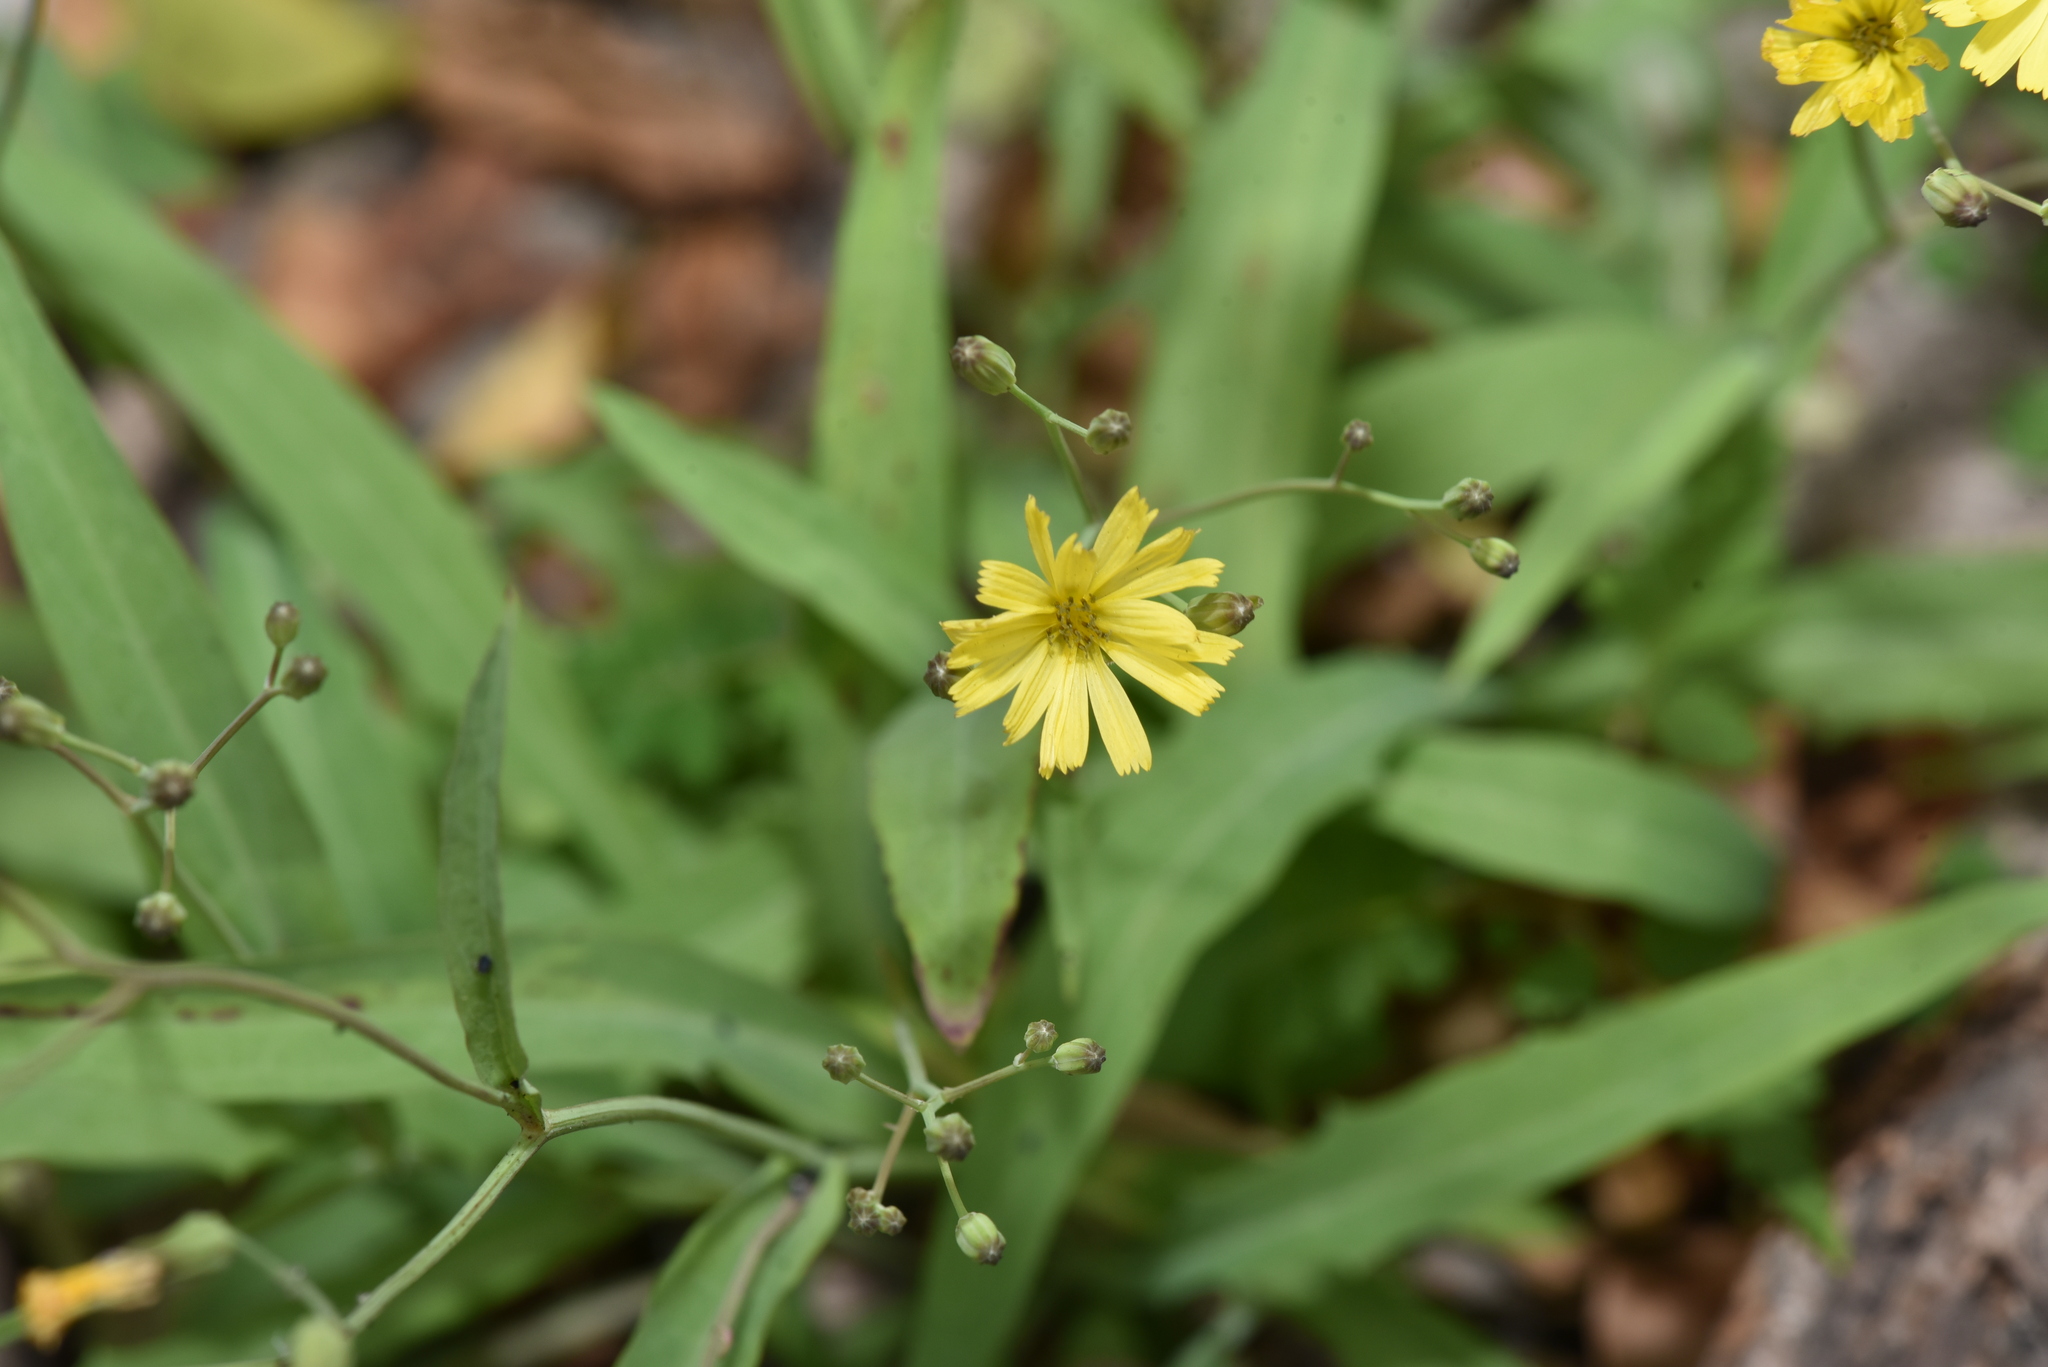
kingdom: Plantae
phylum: Tracheophyta
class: Magnoliopsida
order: Asterales
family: Asteraceae
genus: Ixeris
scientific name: Ixeris chinensis
